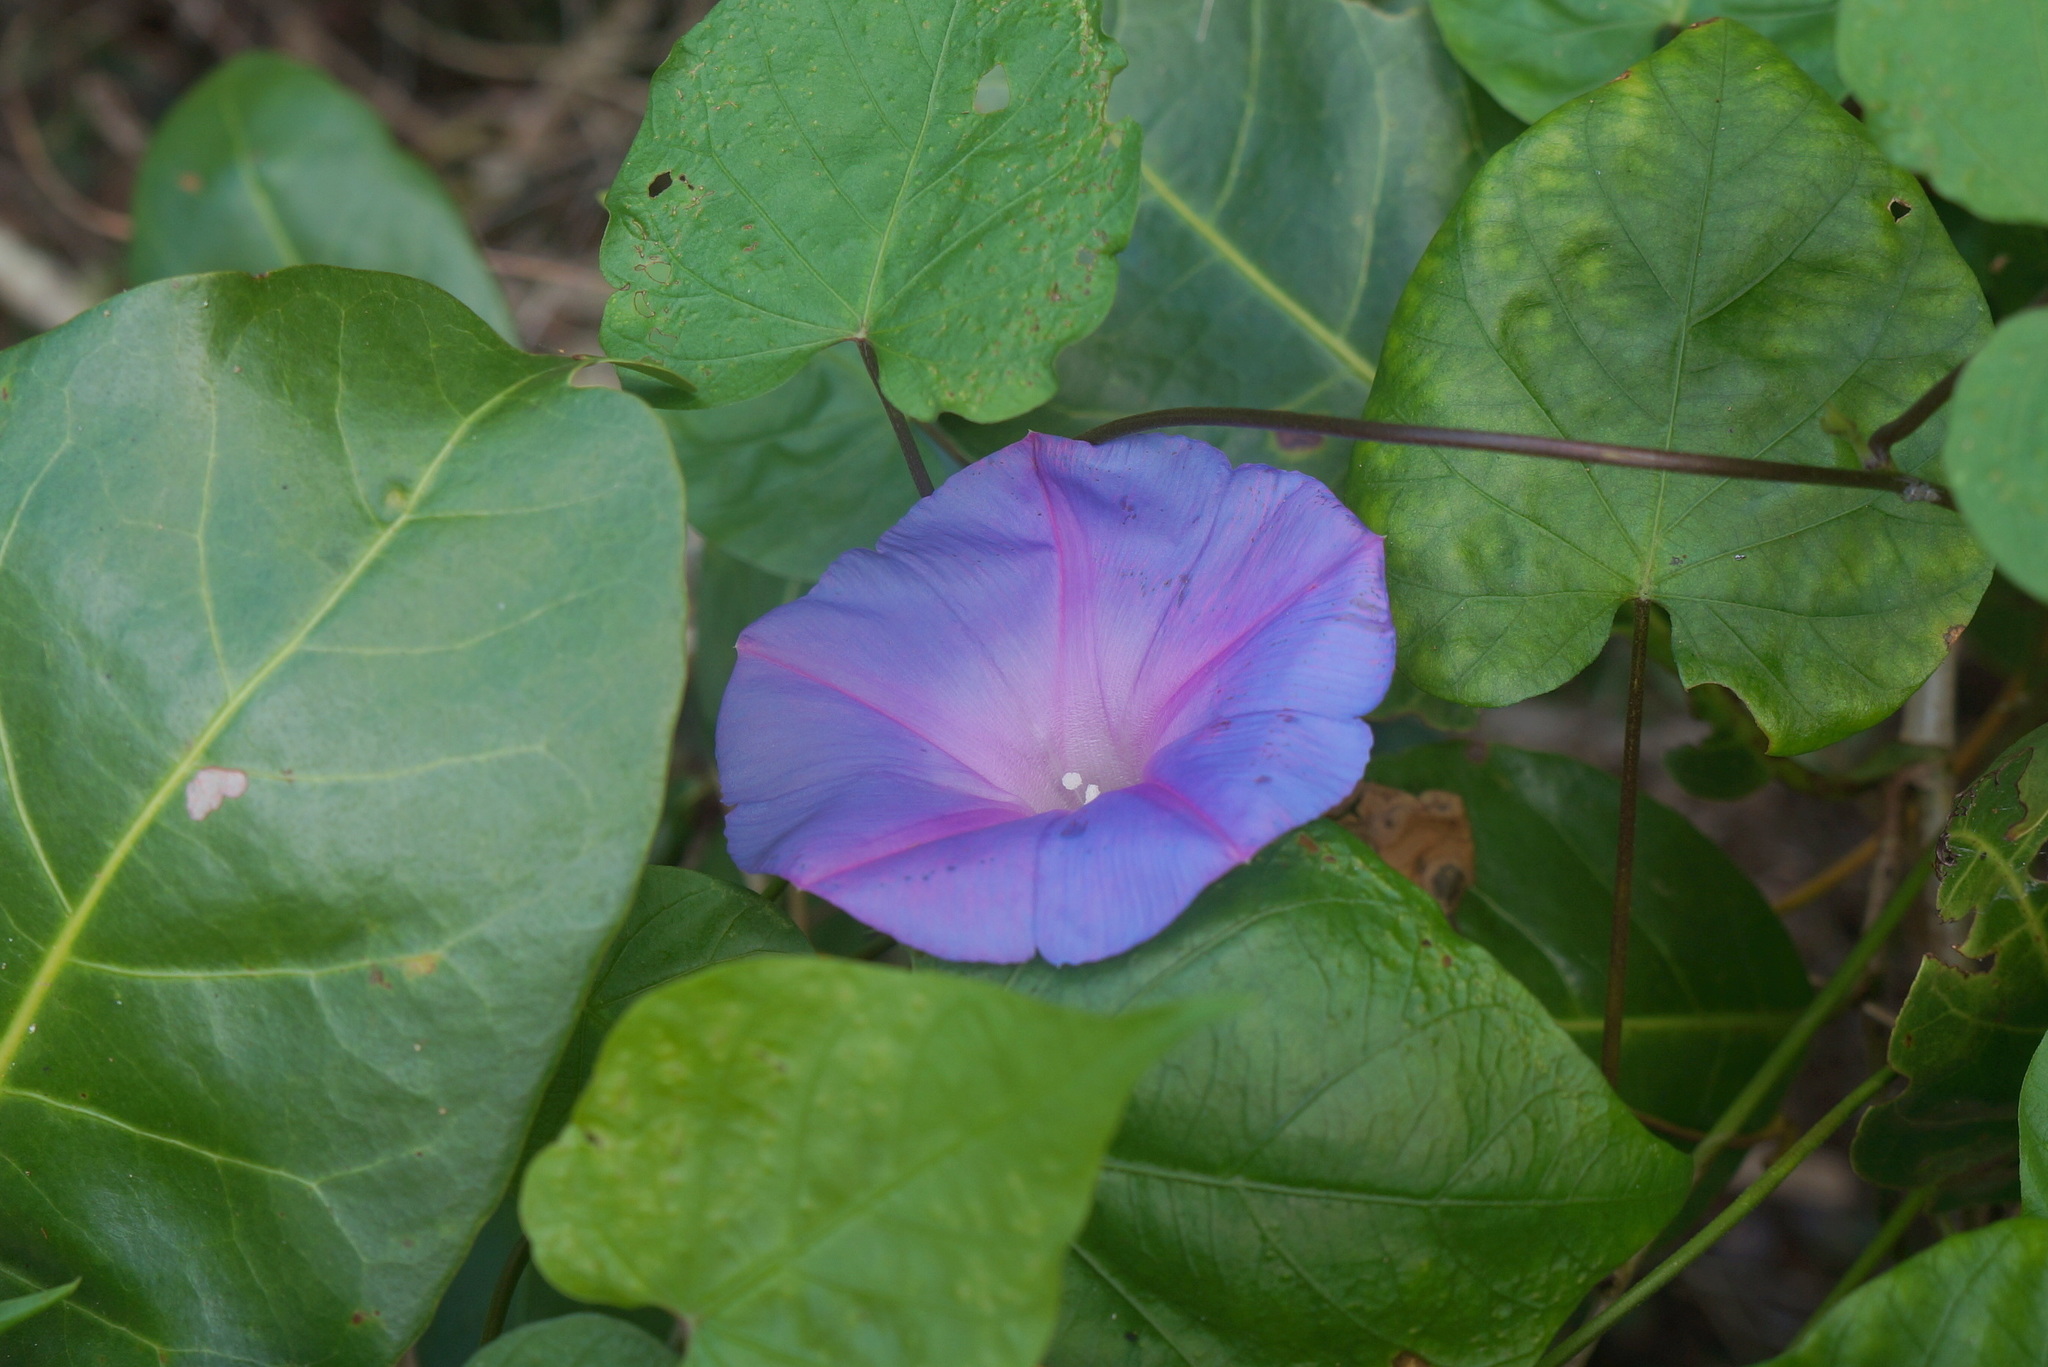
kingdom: Plantae
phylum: Tracheophyta
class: Magnoliopsida
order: Solanales
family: Convolvulaceae
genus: Ipomoea
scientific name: Ipomoea indica
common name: Blue dawnflower
